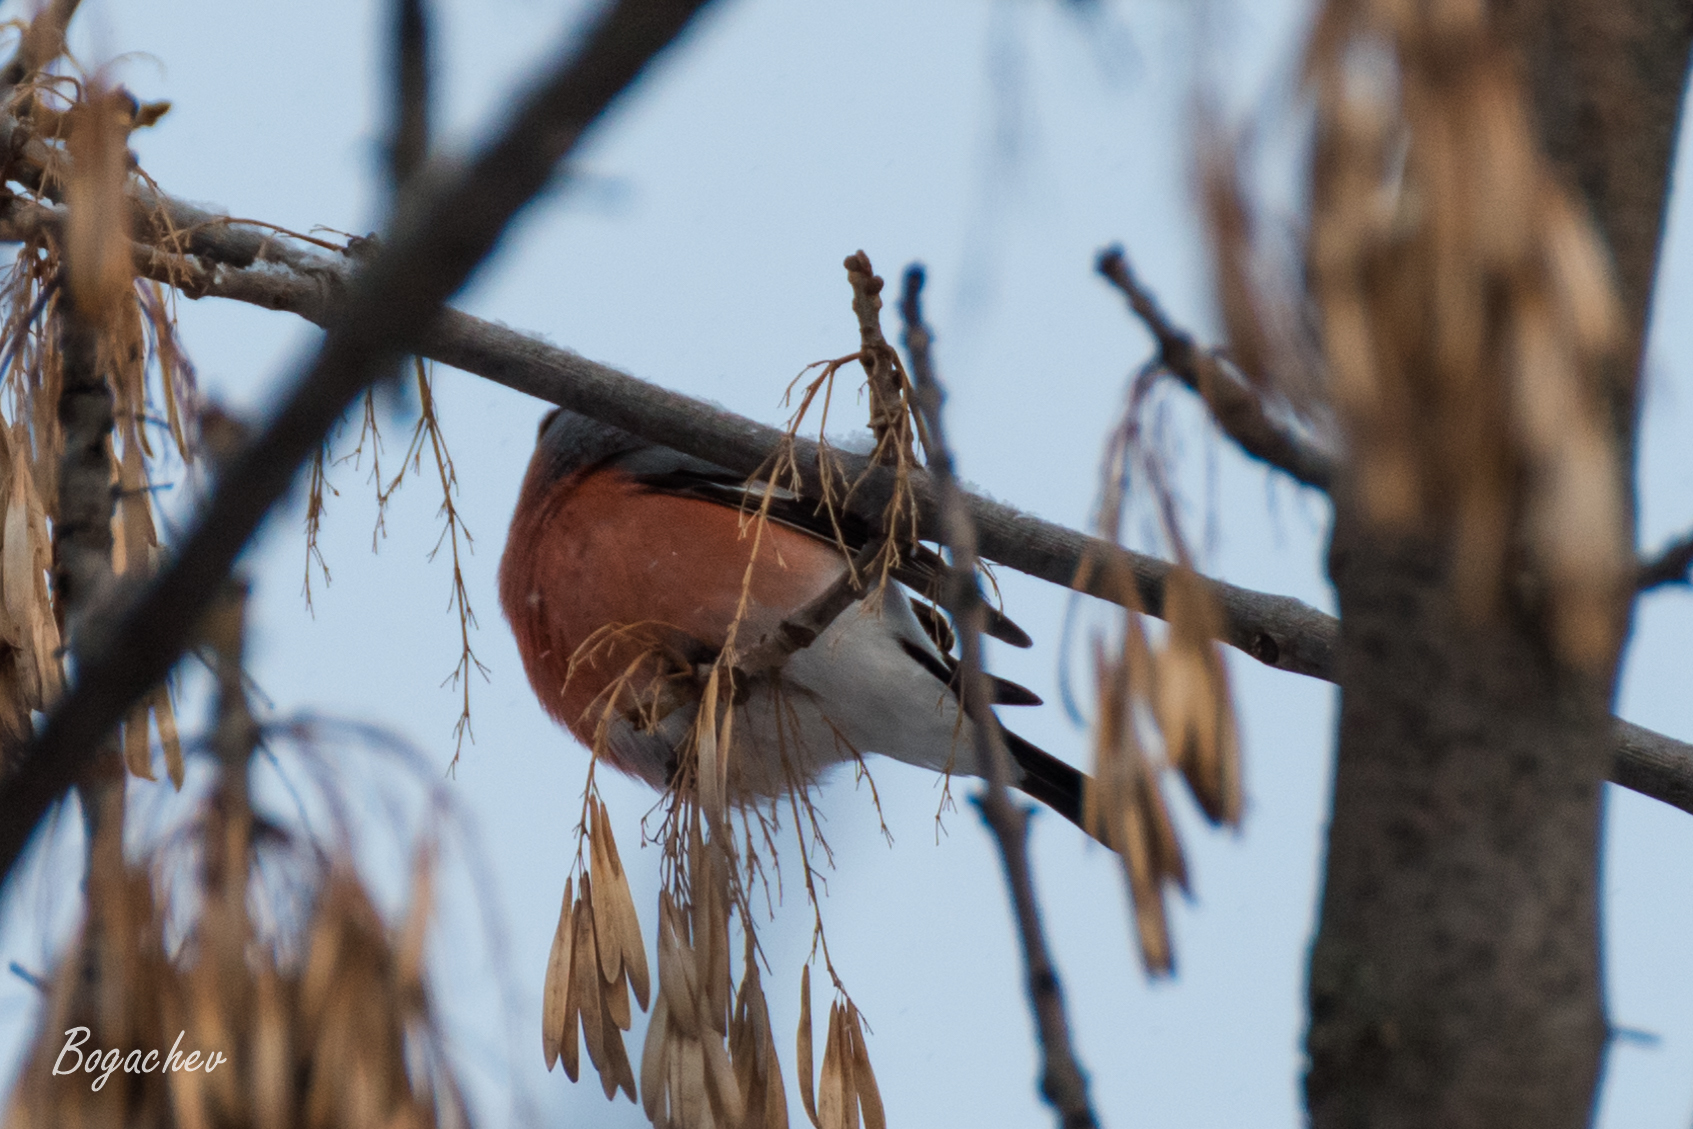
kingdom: Animalia
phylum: Chordata
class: Aves
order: Passeriformes
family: Fringillidae
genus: Pyrrhula
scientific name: Pyrrhula pyrrhula
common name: Eurasian bullfinch
